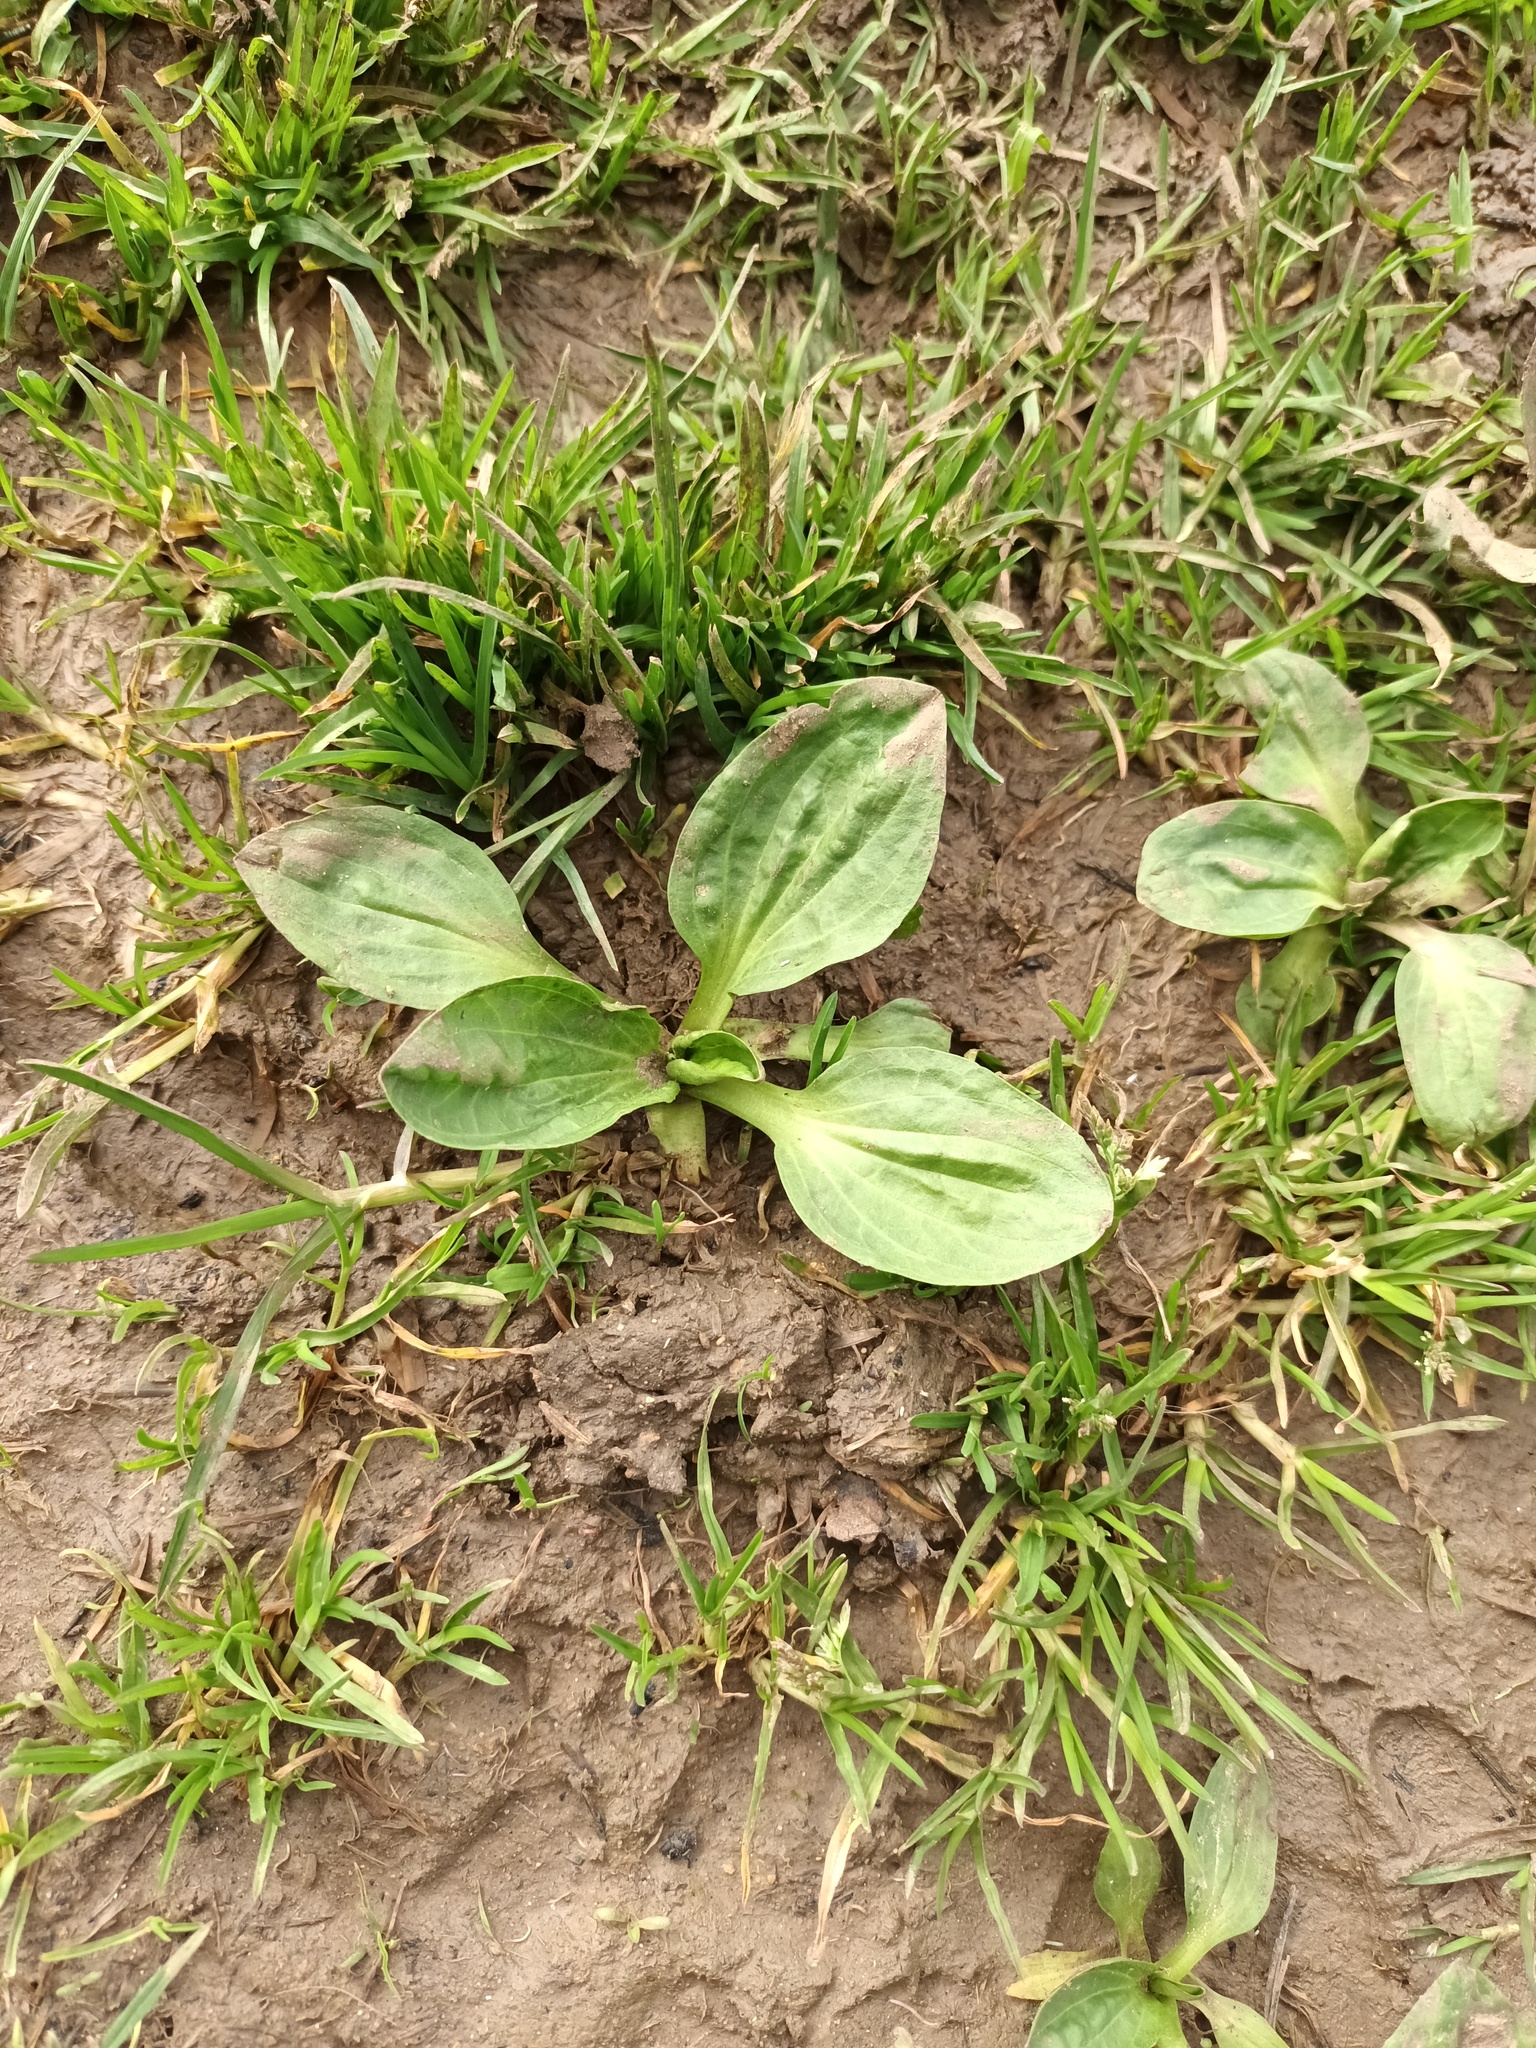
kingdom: Plantae
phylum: Tracheophyta
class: Magnoliopsida
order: Lamiales
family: Plantaginaceae
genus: Plantago
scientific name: Plantago major
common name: Common plantain
